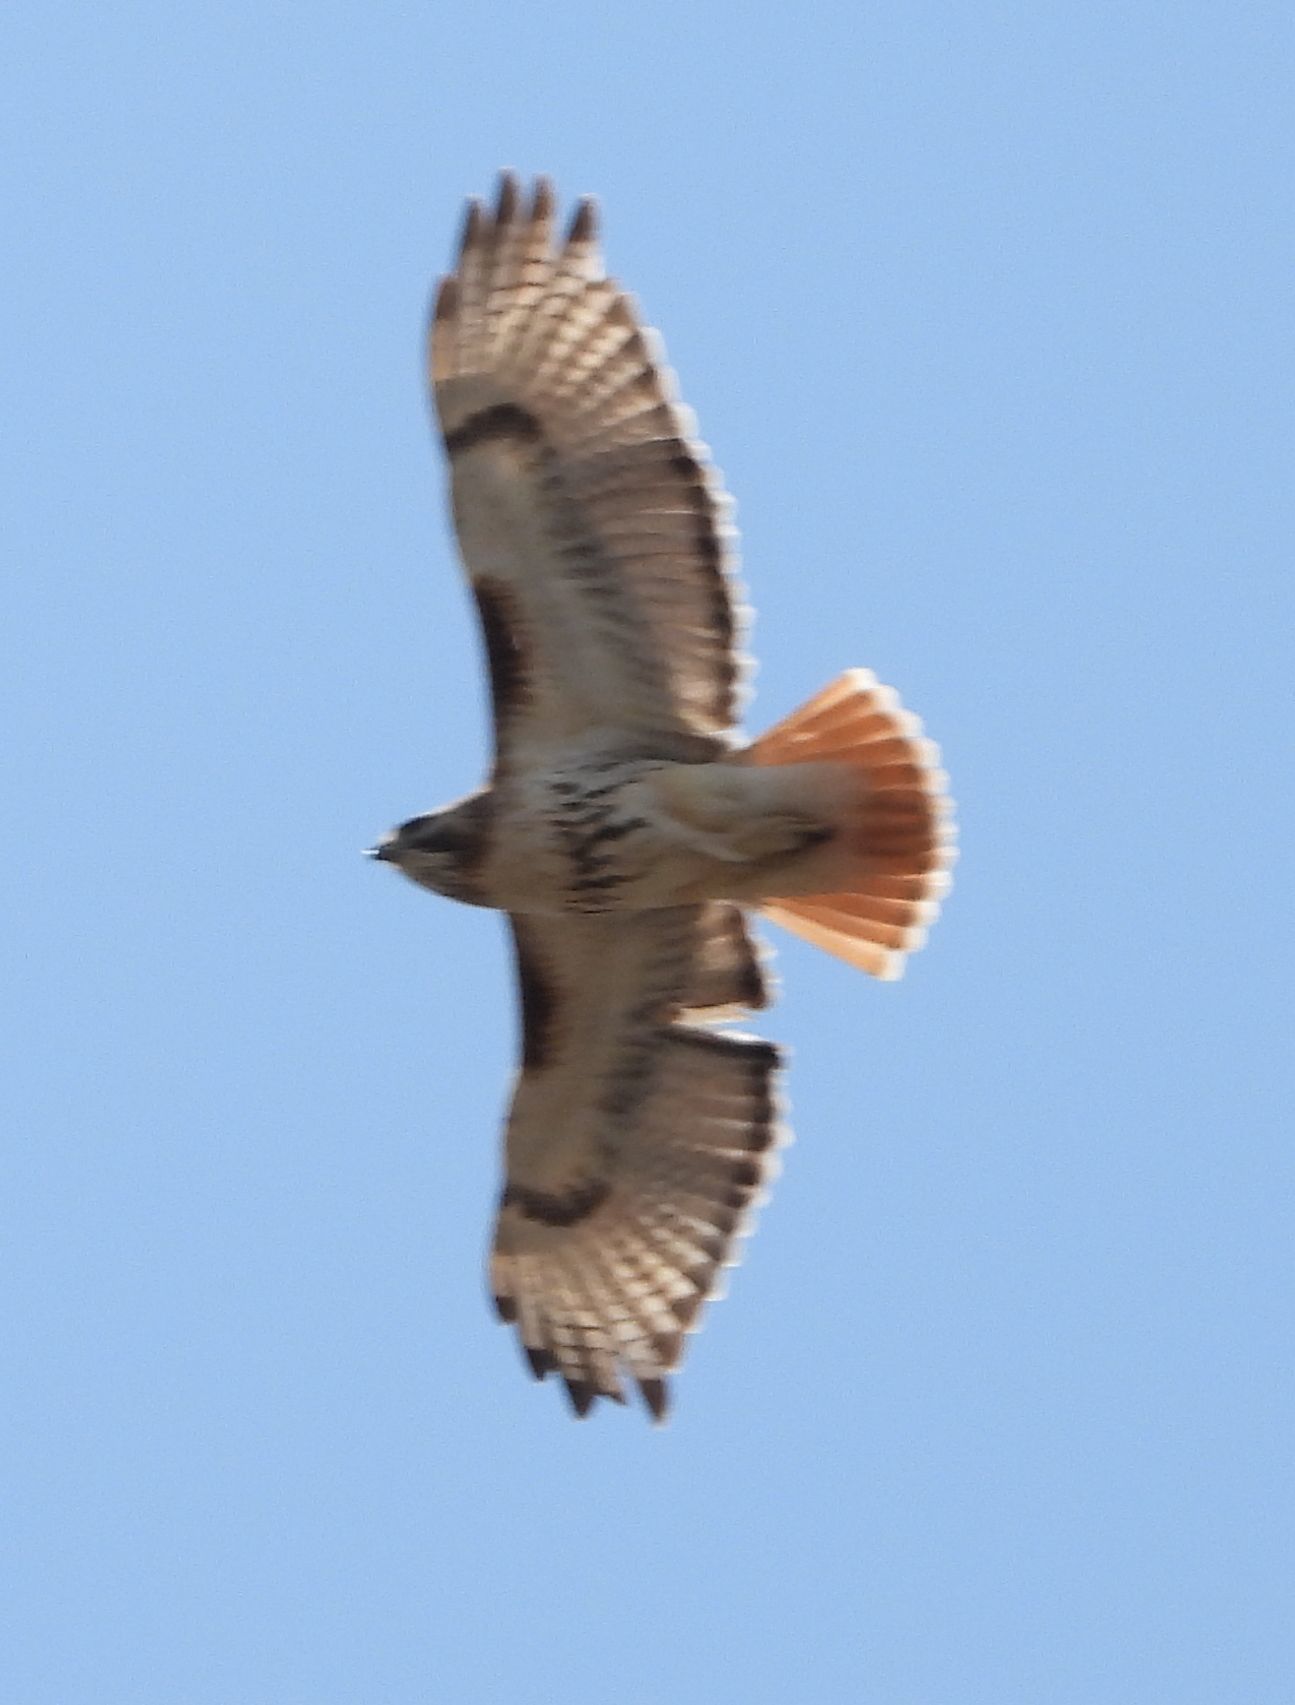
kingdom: Animalia
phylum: Chordata
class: Aves
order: Accipitriformes
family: Accipitridae
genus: Buteo
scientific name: Buteo jamaicensis
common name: Red-tailed hawk
